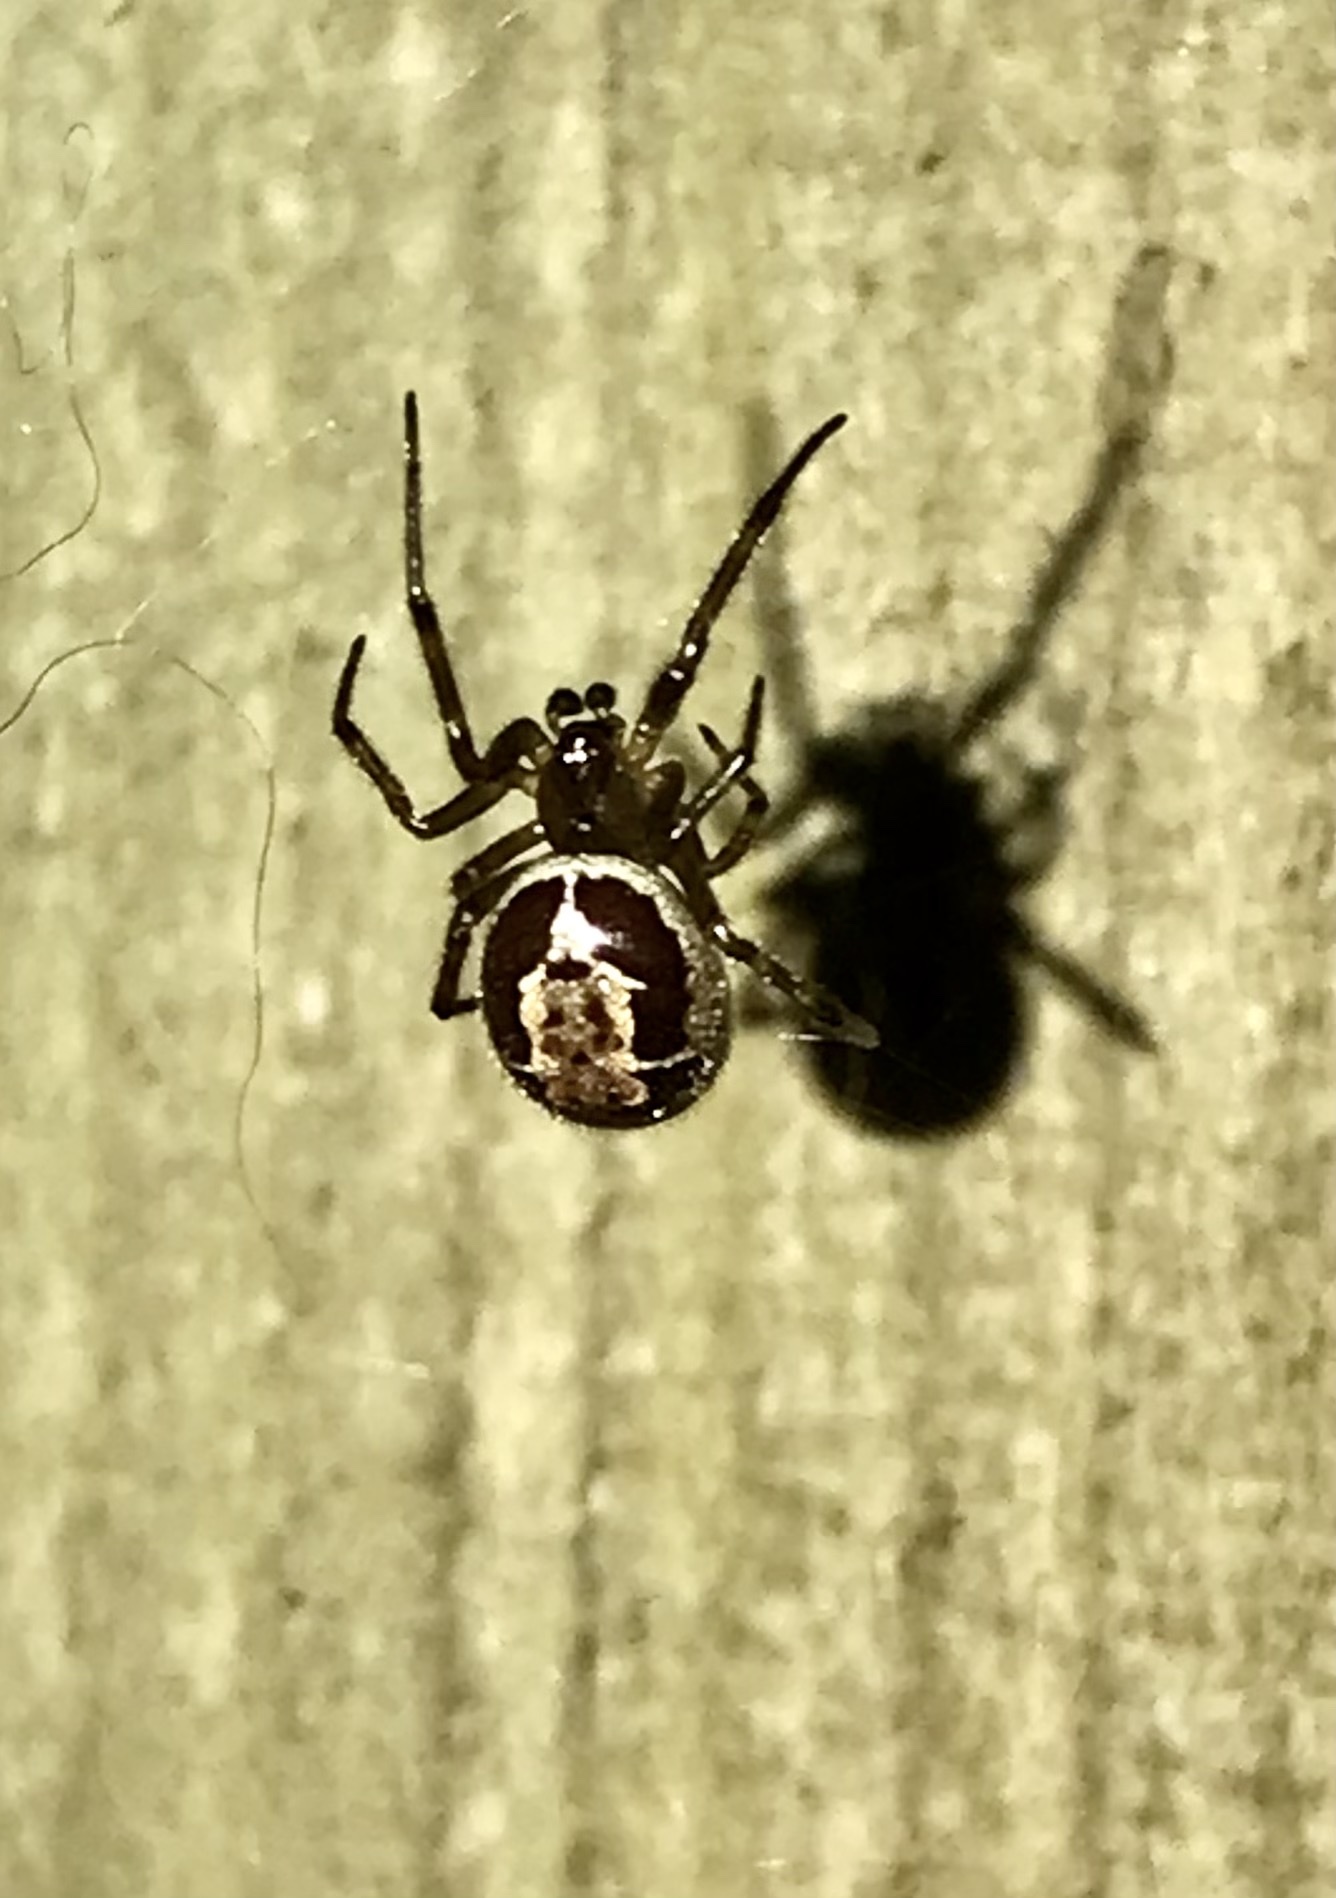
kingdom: Animalia
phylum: Arthropoda
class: Arachnida
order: Araneae
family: Theridiidae
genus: Steatoda
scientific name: Steatoda nobilis
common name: Cobweb weaver
